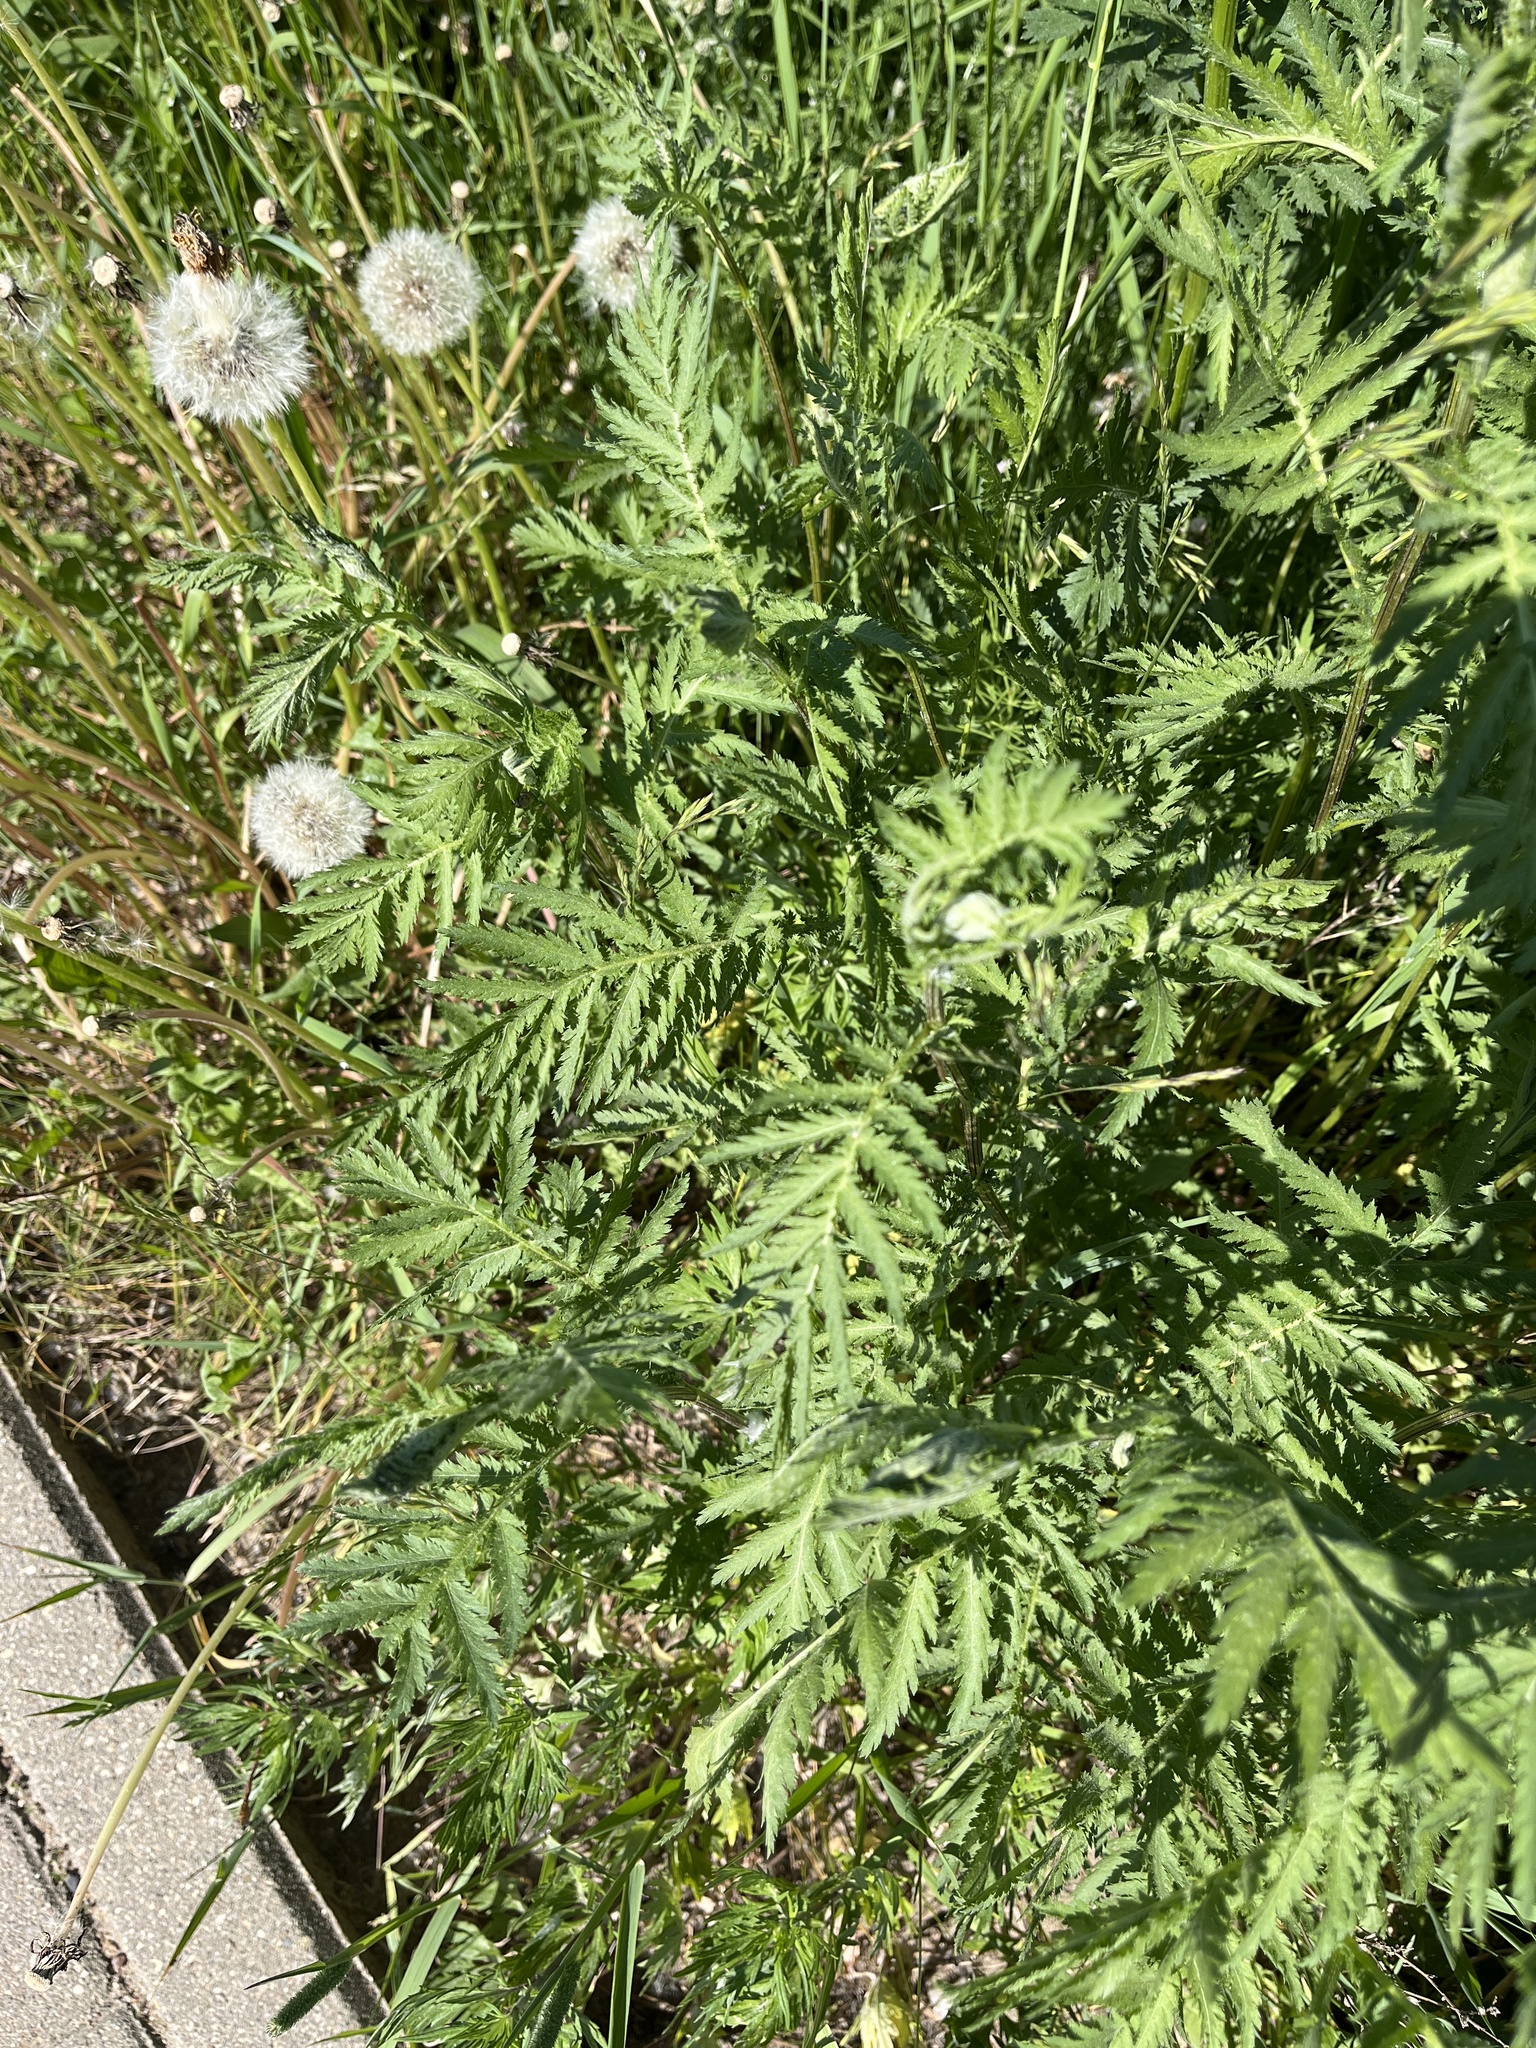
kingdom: Plantae
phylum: Tracheophyta
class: Magnoliopsida
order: Asterales
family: Asteraceae
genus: Tanacetum
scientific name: Tanacetum vulgare
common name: Common tansy
